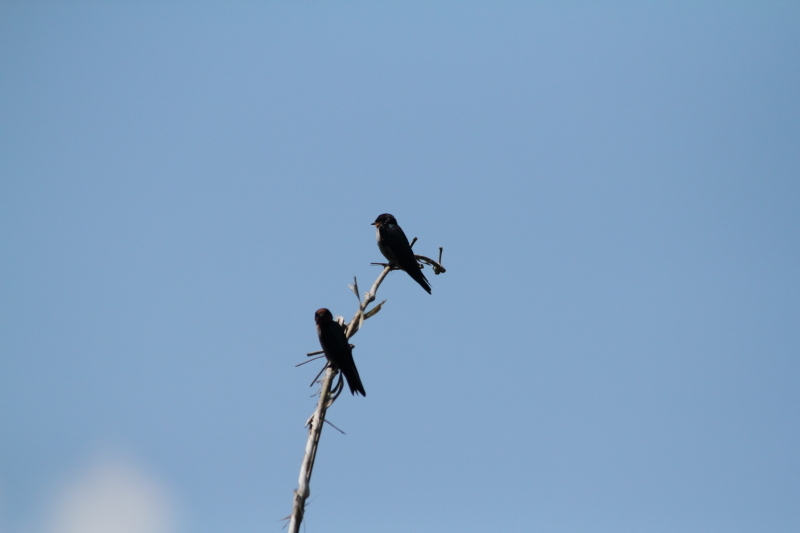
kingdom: Animalia
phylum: Chordata
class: Aves
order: Passeriformes
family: Hirundinidae
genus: Hirundo
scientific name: Hirundo tahitica
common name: Pacific swallow
